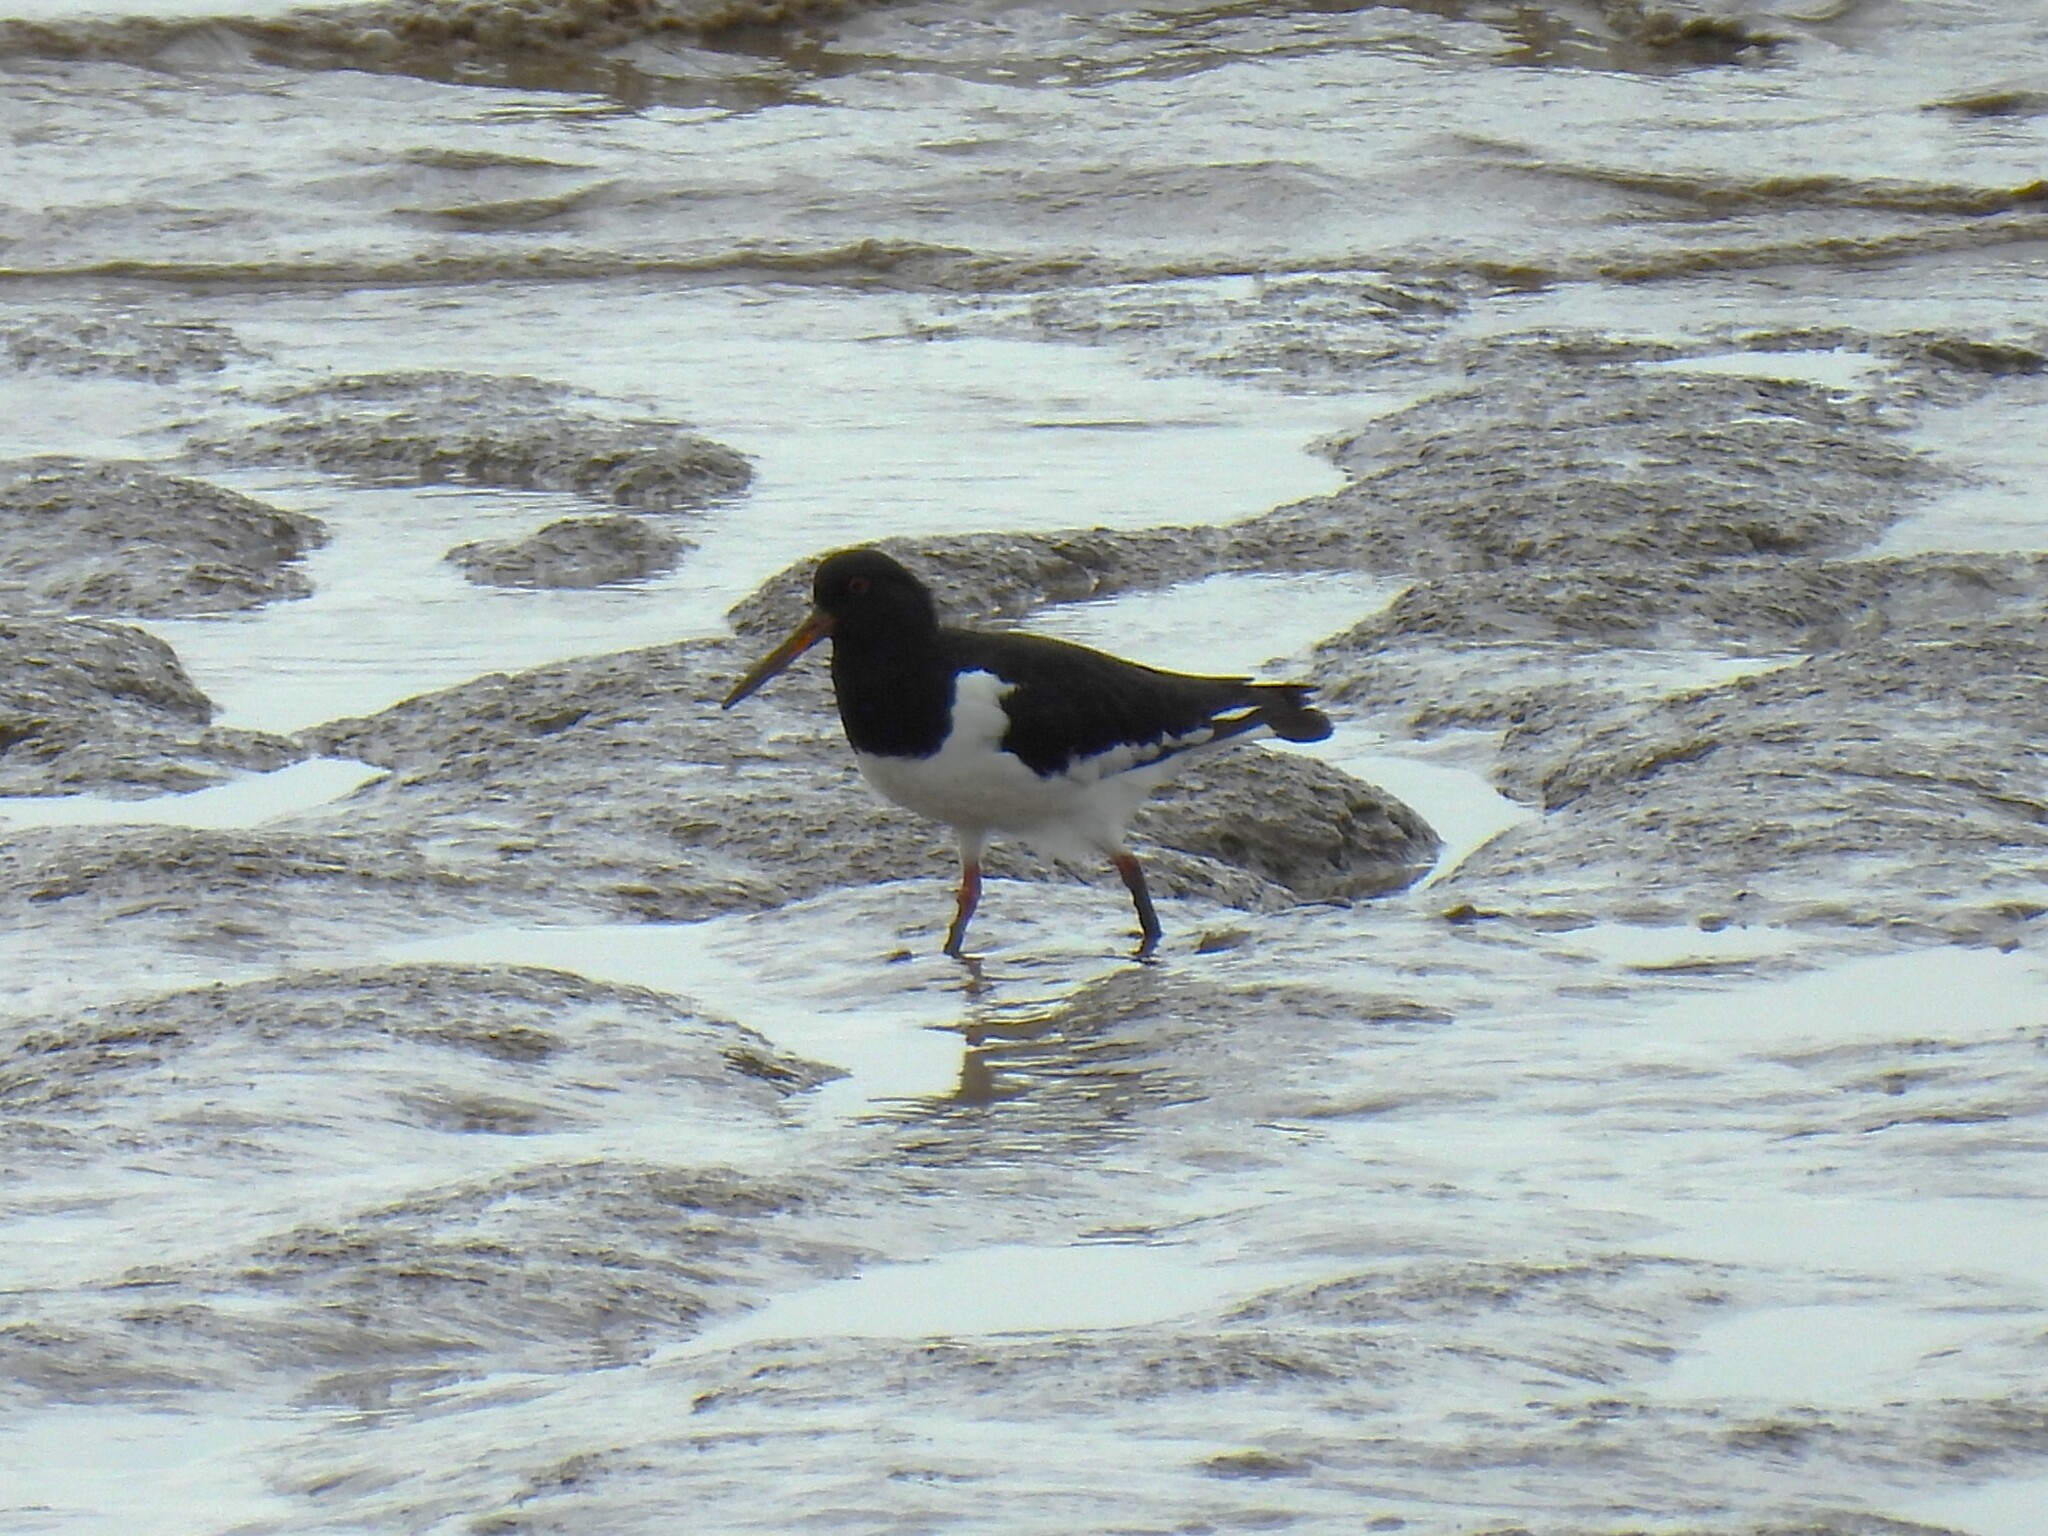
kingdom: Animalia
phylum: Chordata
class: Aves
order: Charadriiformes
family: Haematopodidae
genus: Haematopus
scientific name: Haematopus ostralegus
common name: Eurasian oystercatcher
